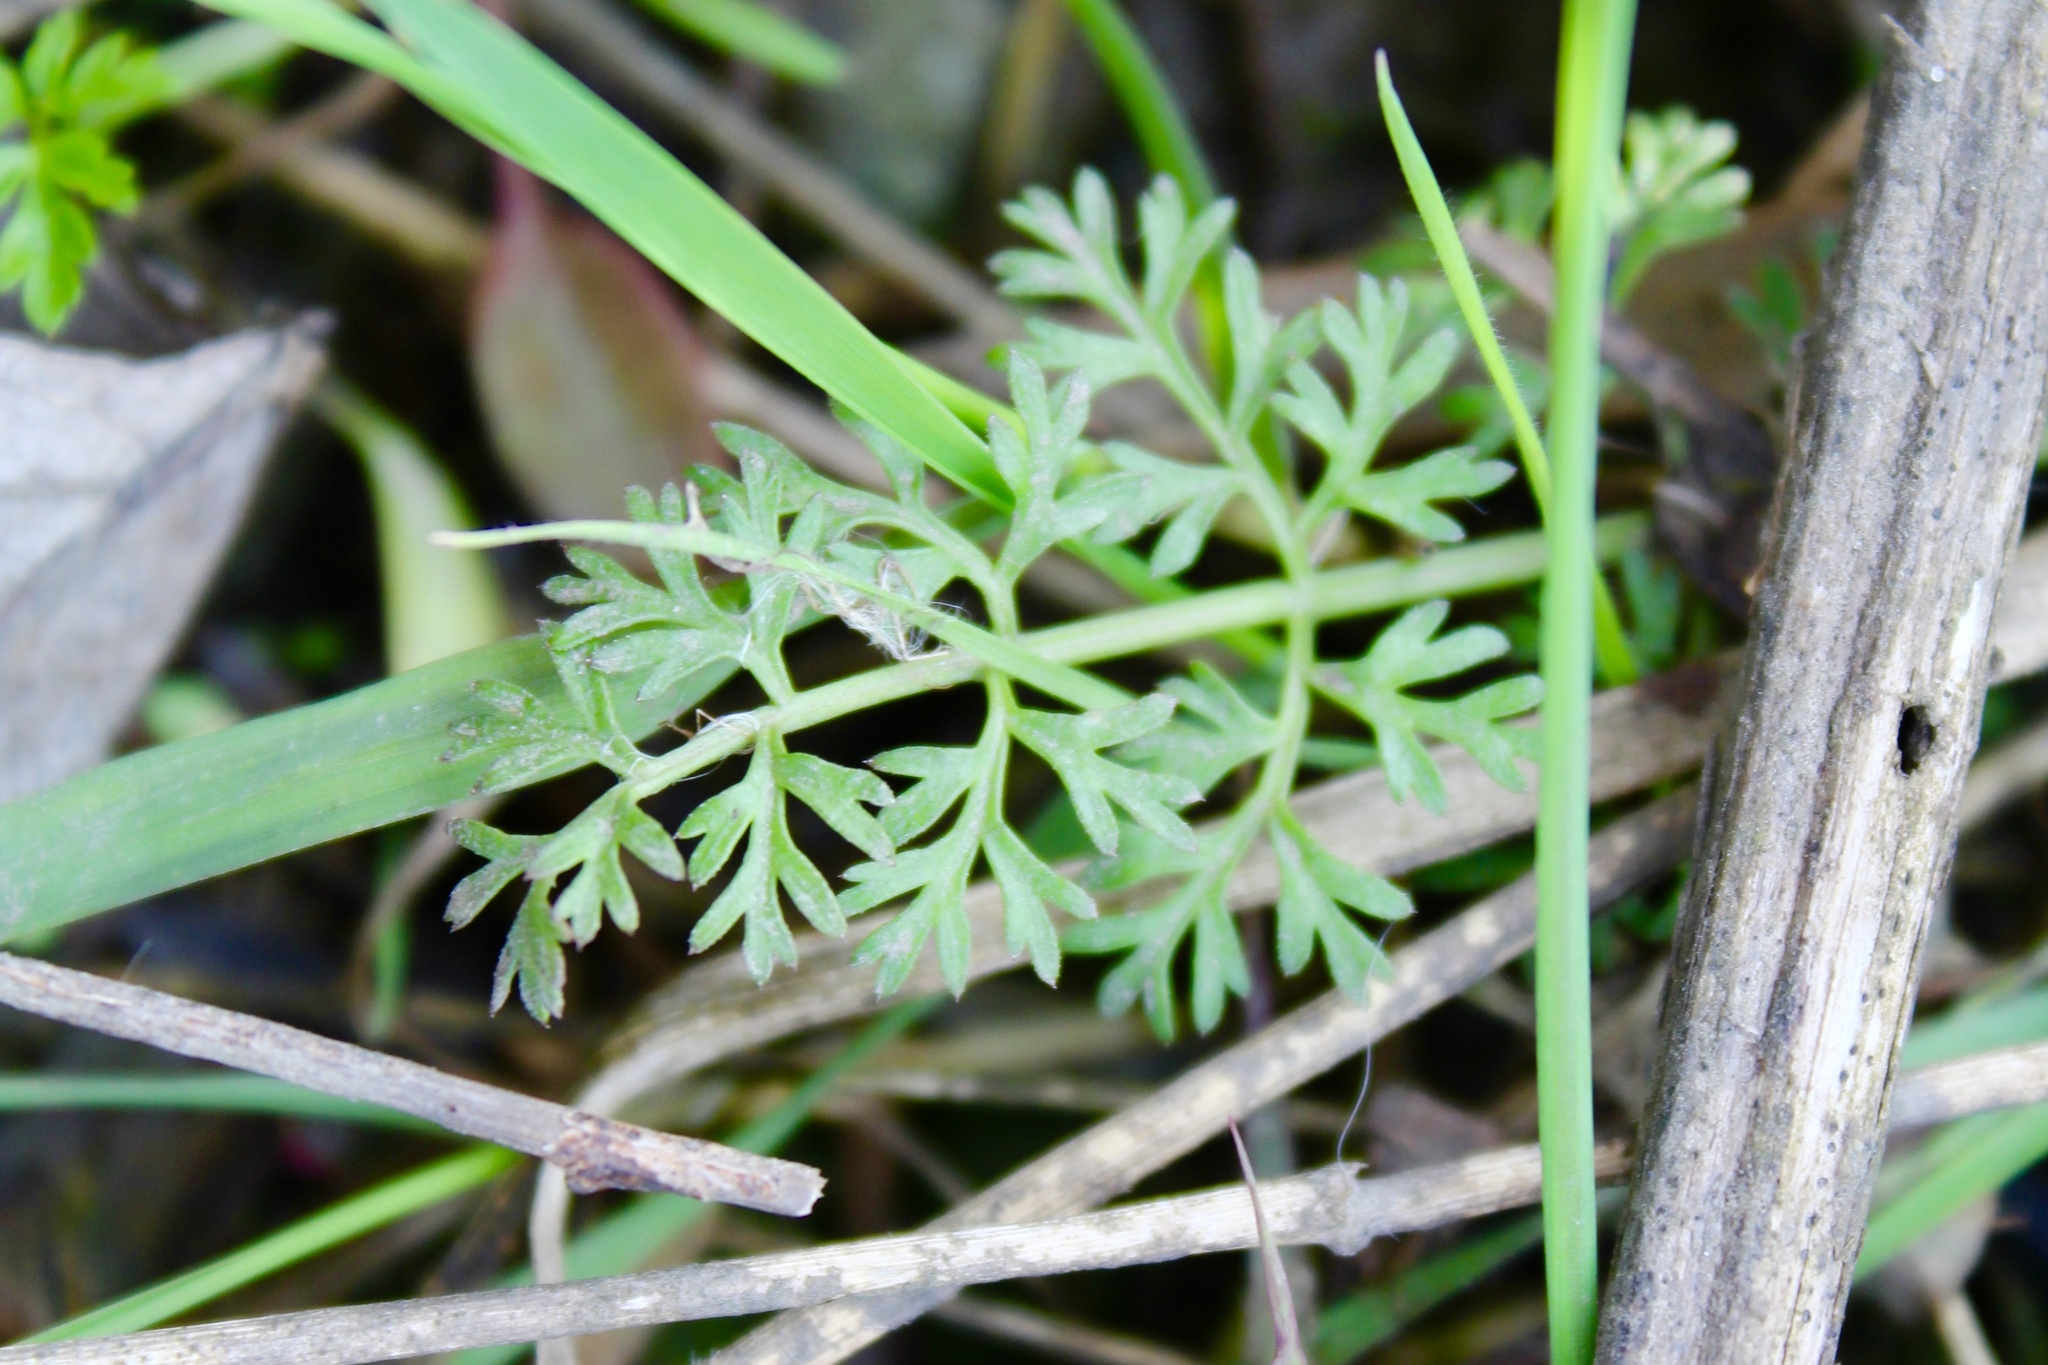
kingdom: Plantae
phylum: Tracheophyta
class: Magnoliopsida
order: Apiales
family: Apiaceae
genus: Daucus
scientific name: Daucus carota
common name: Wild carrot
